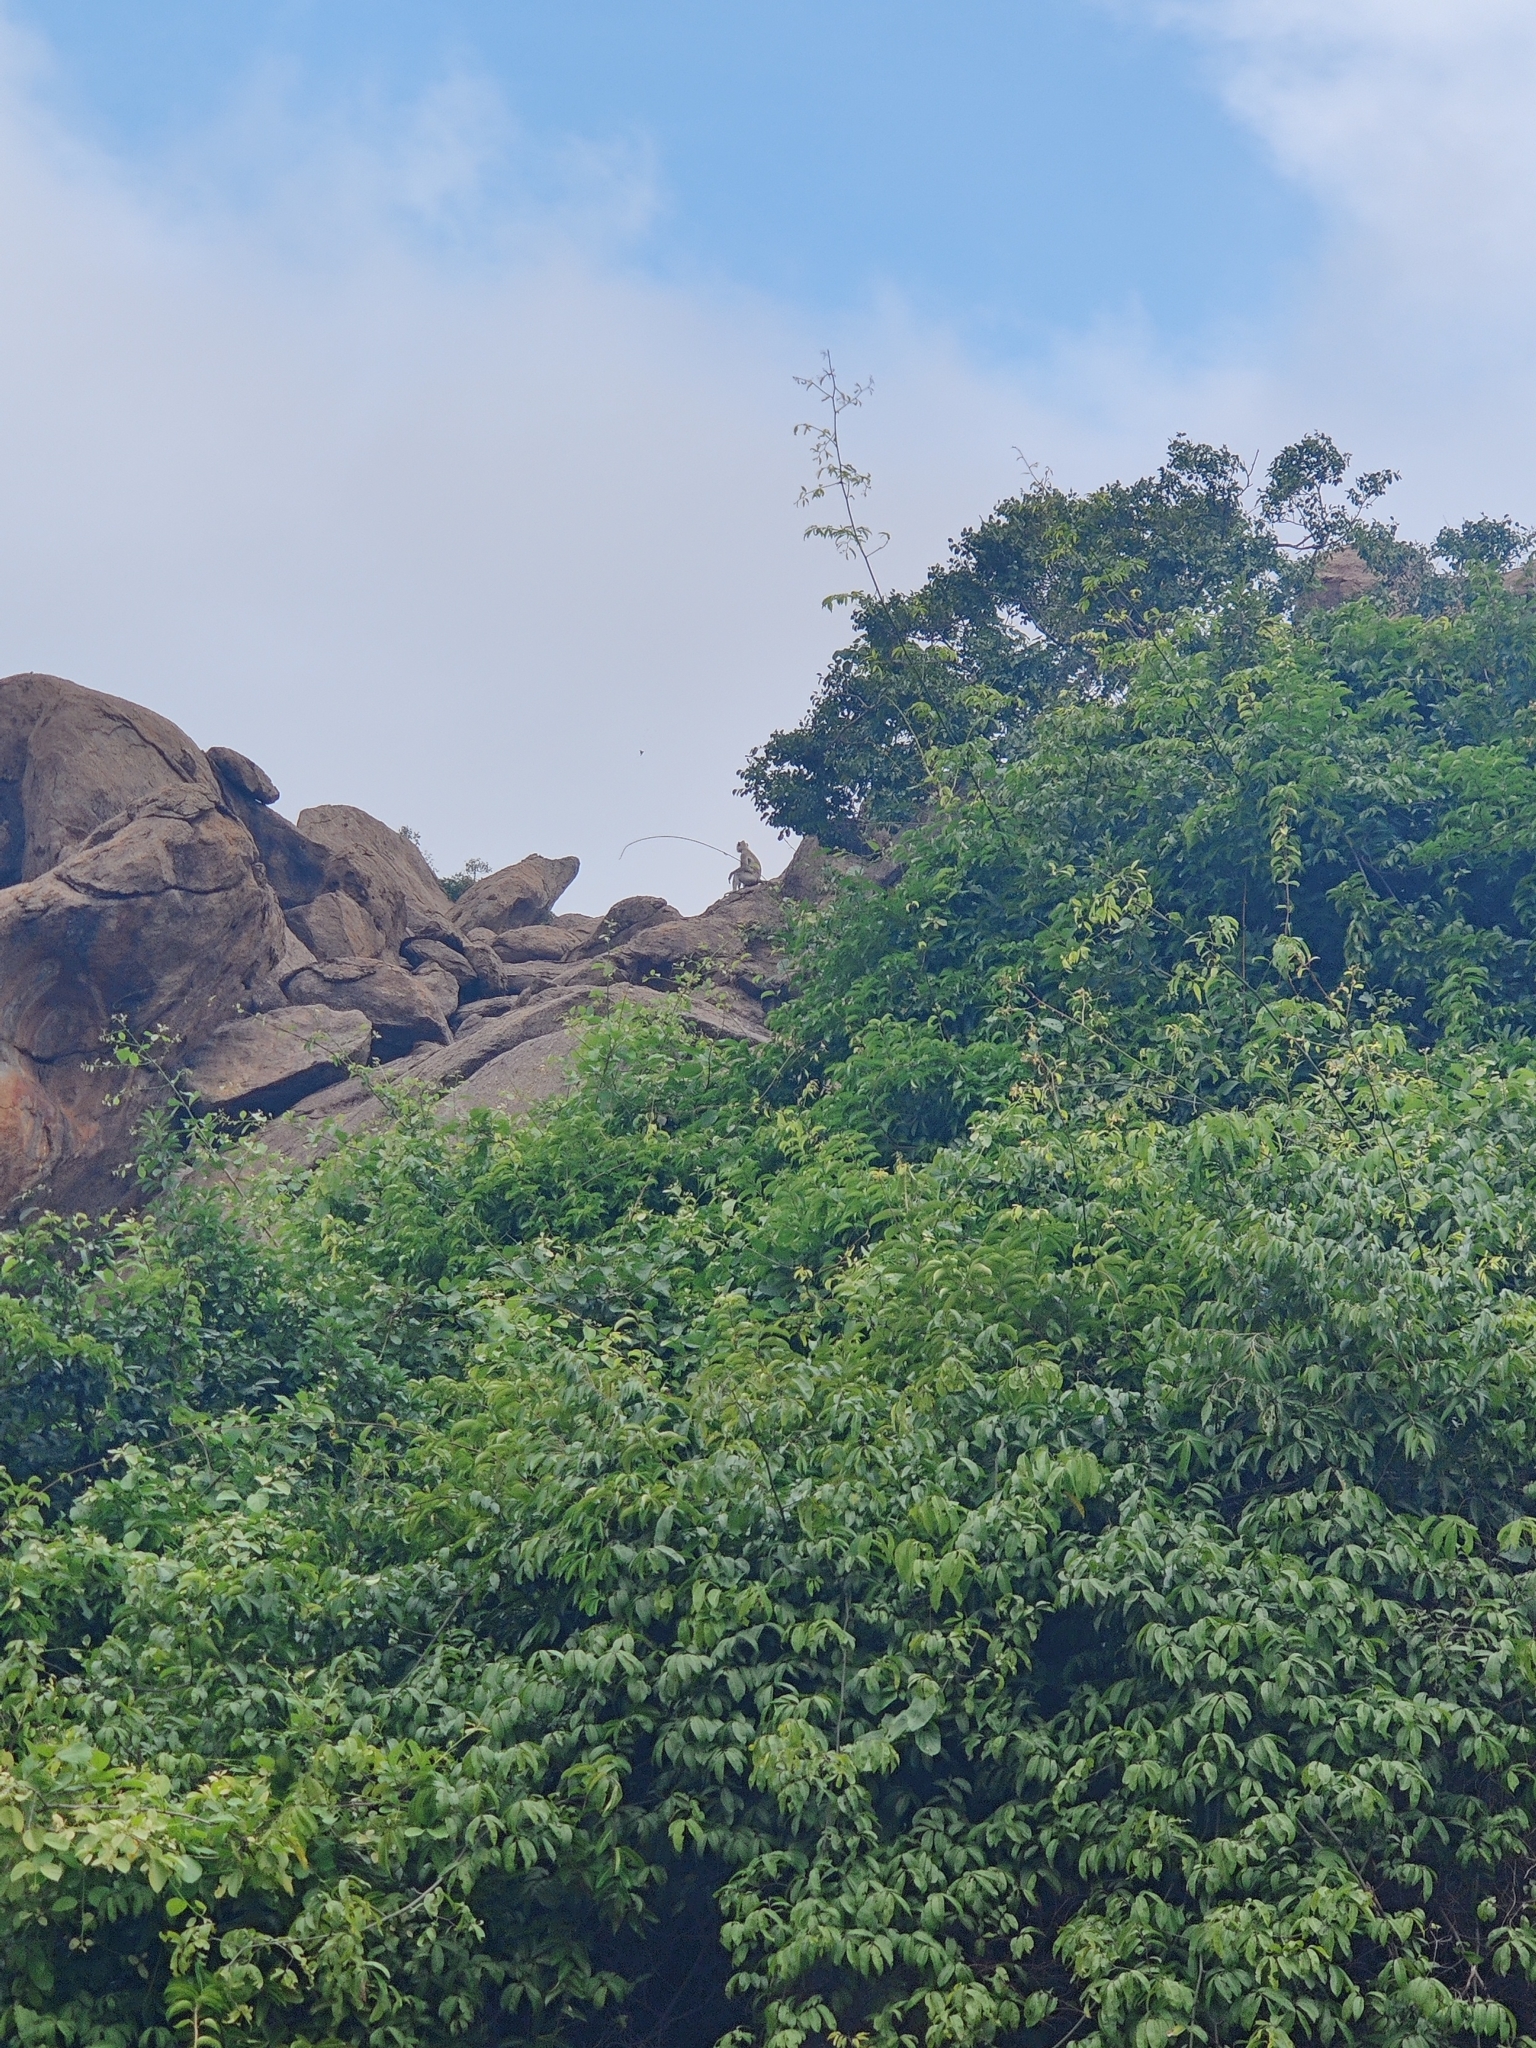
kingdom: Animalia
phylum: Chordata
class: Mammalia
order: Primates
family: Cercopithecidae
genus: Semnopithecus
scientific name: Semnopithecus priam
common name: Tufted gray langur
